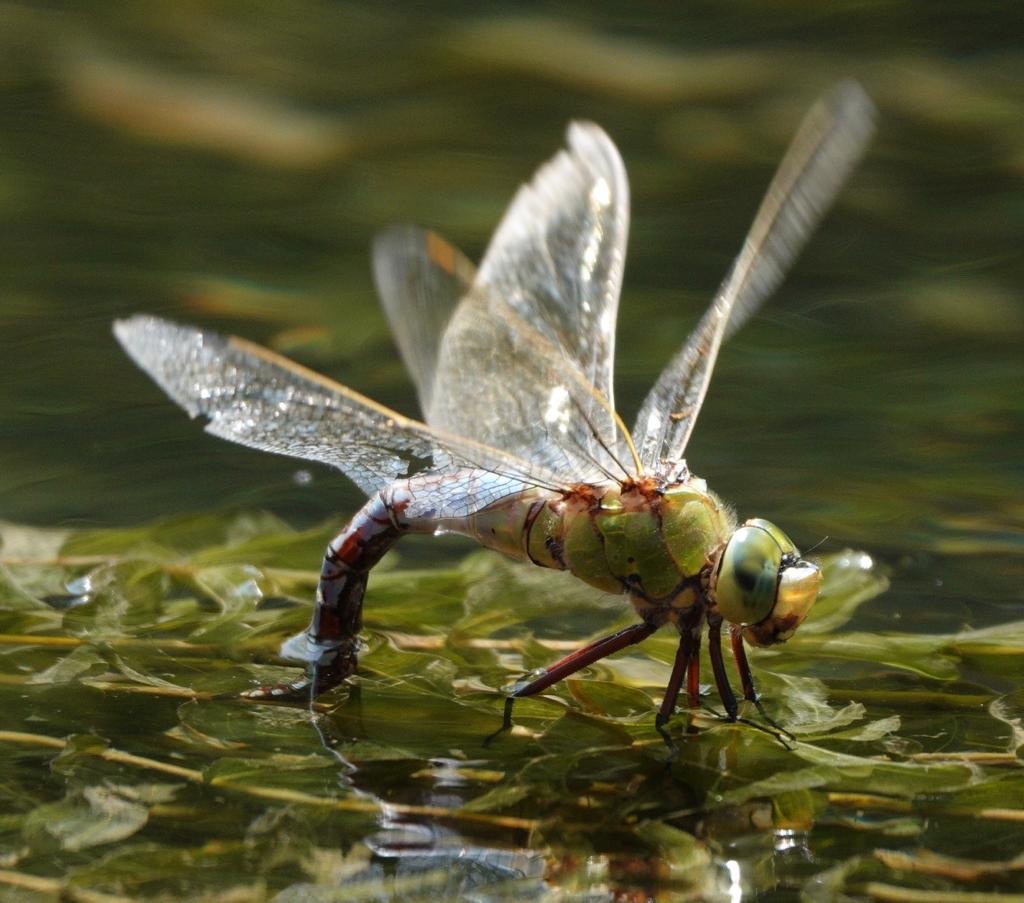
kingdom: Animalia
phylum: Arthropoda
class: Insecta
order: Odonata
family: Aeshnidae
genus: Anax
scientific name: Anax imperator
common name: Emperor dragonfly
